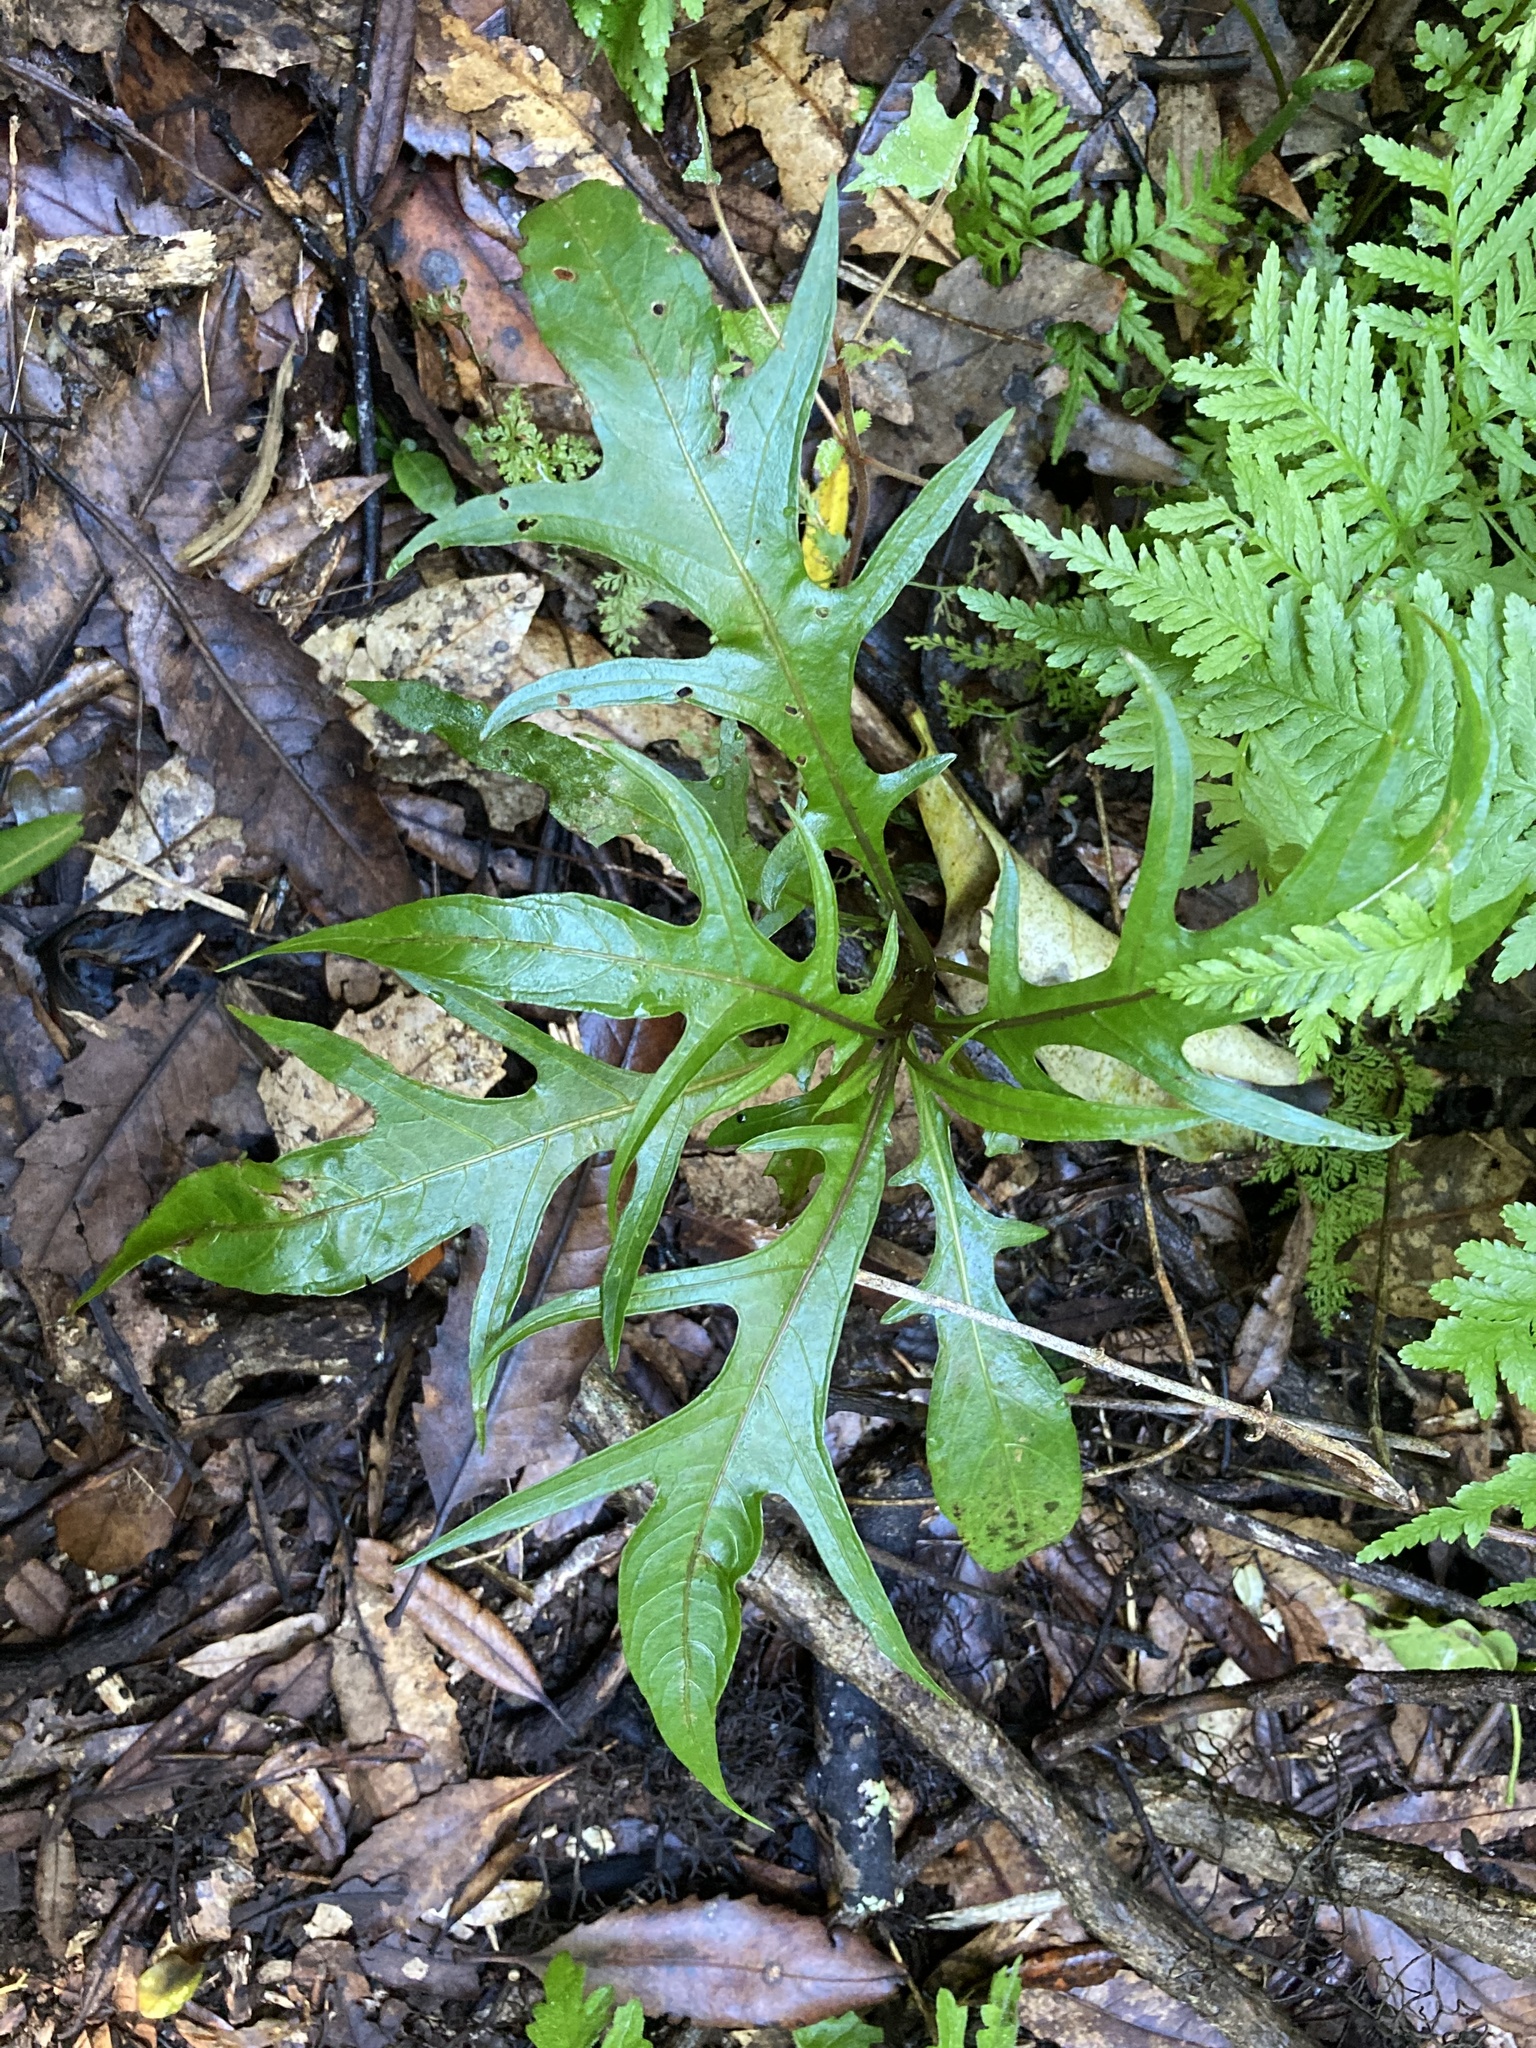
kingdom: Plantae
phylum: Tracheophyta
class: Magnoliopsida
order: Solanales
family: Solanaceae
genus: Solanum
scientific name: Solanum
